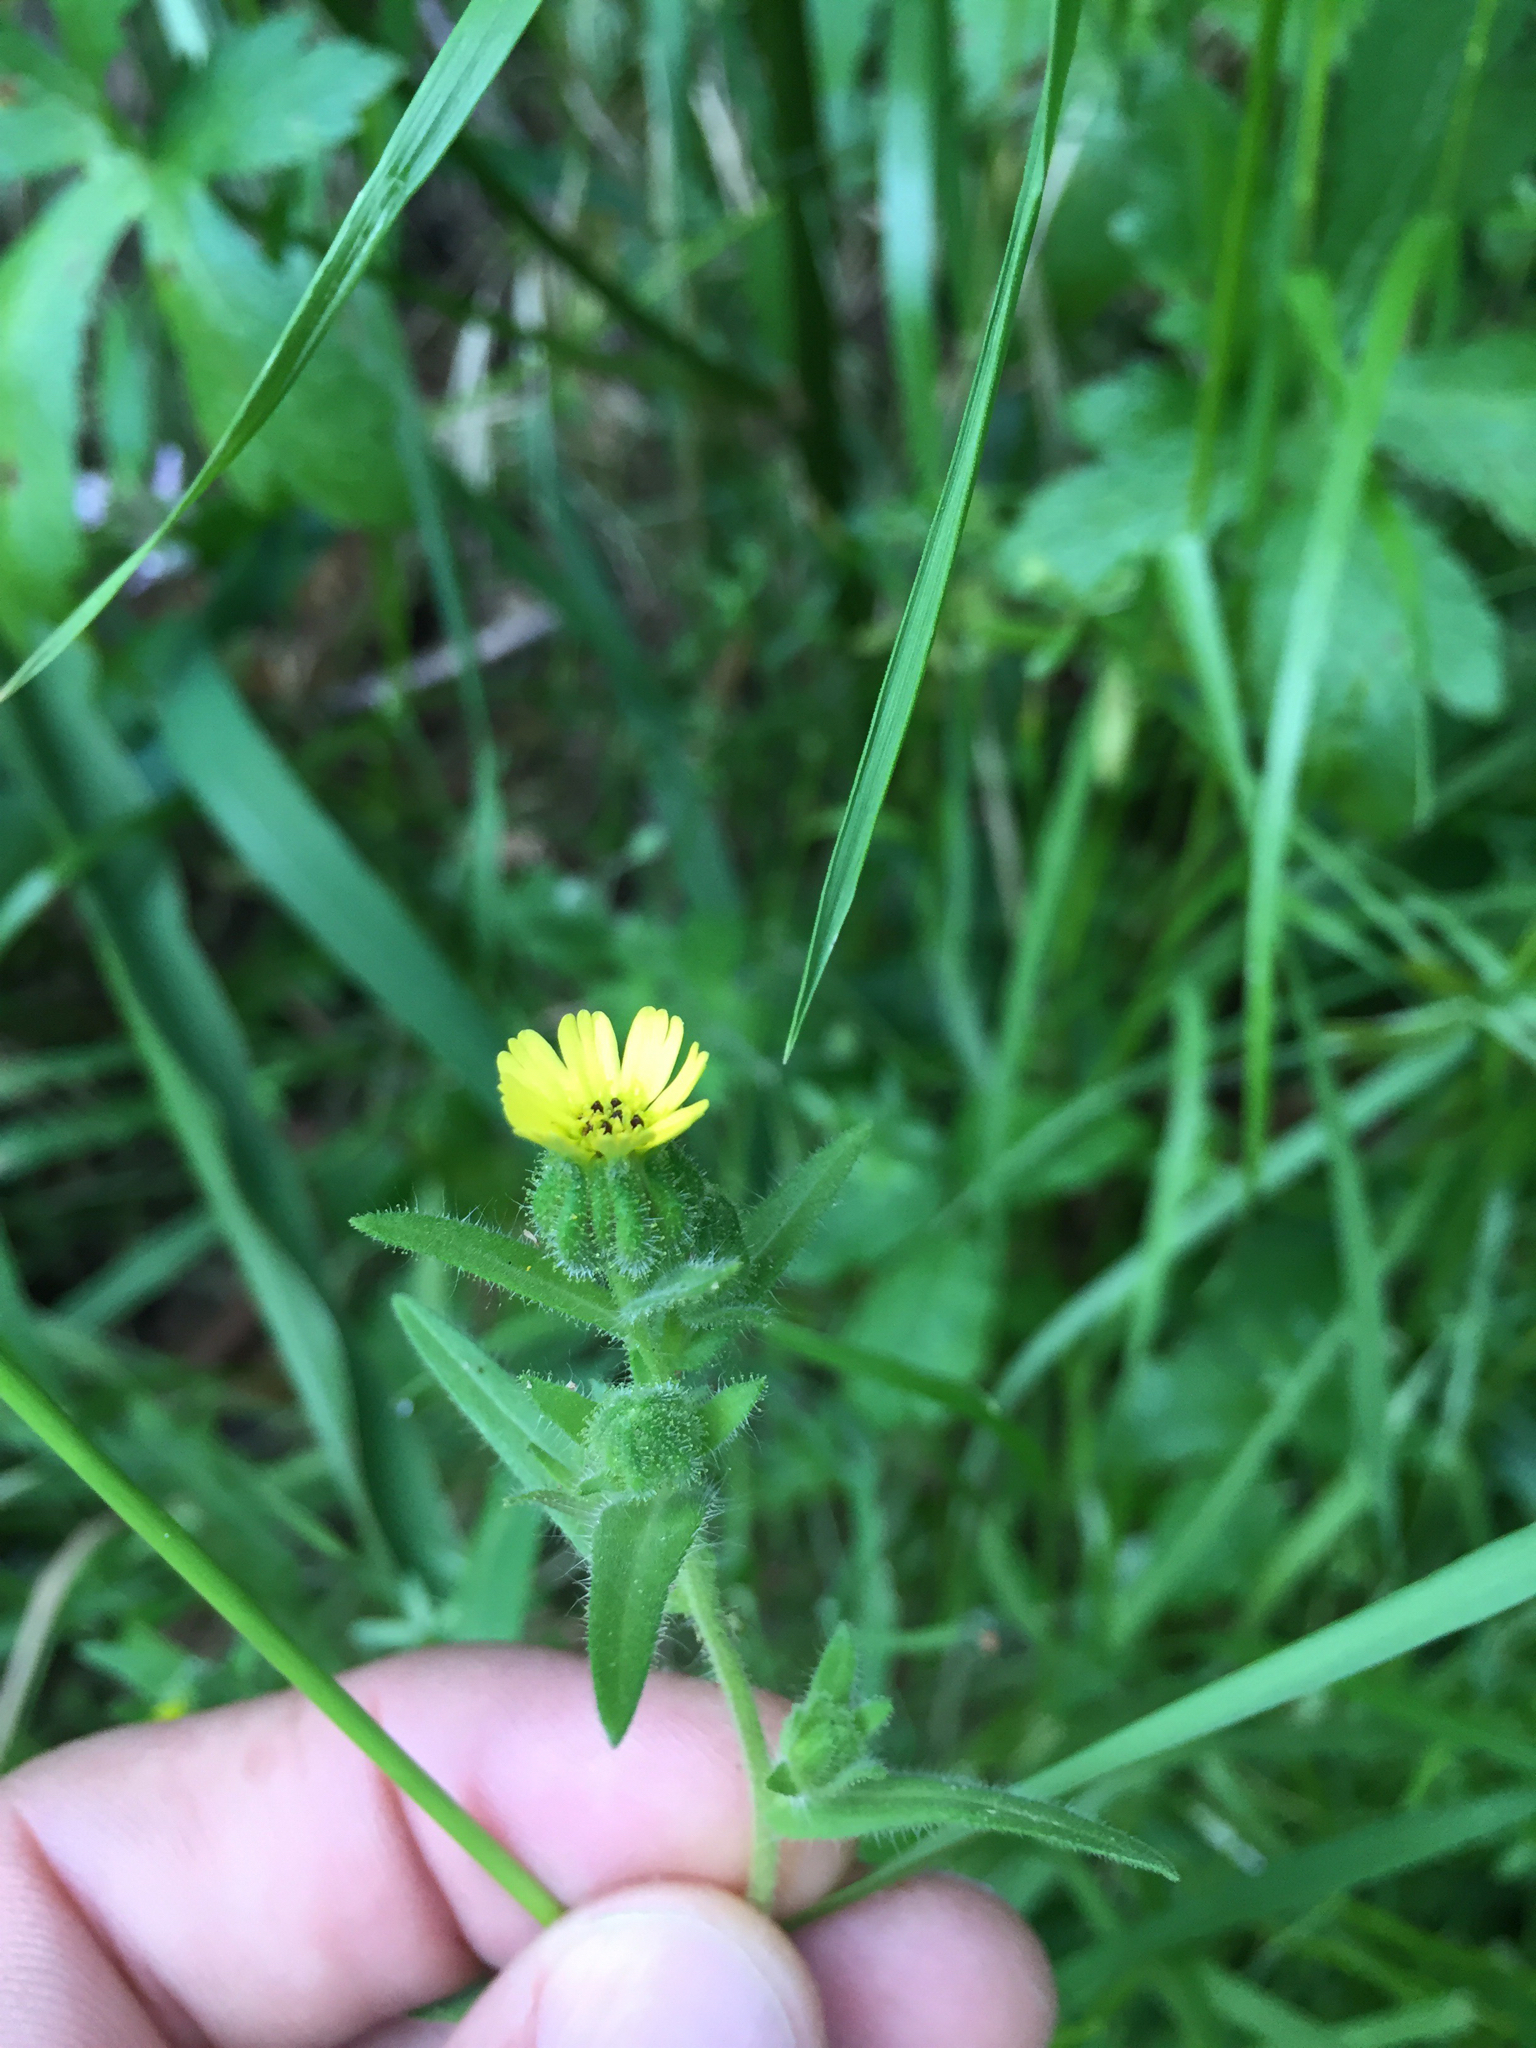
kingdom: Plantae
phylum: Tracheophyta
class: Magnoliopsida
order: Asterales
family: Asteraceae
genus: Madia
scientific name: Madia gracilis
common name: Grassy tarweed
